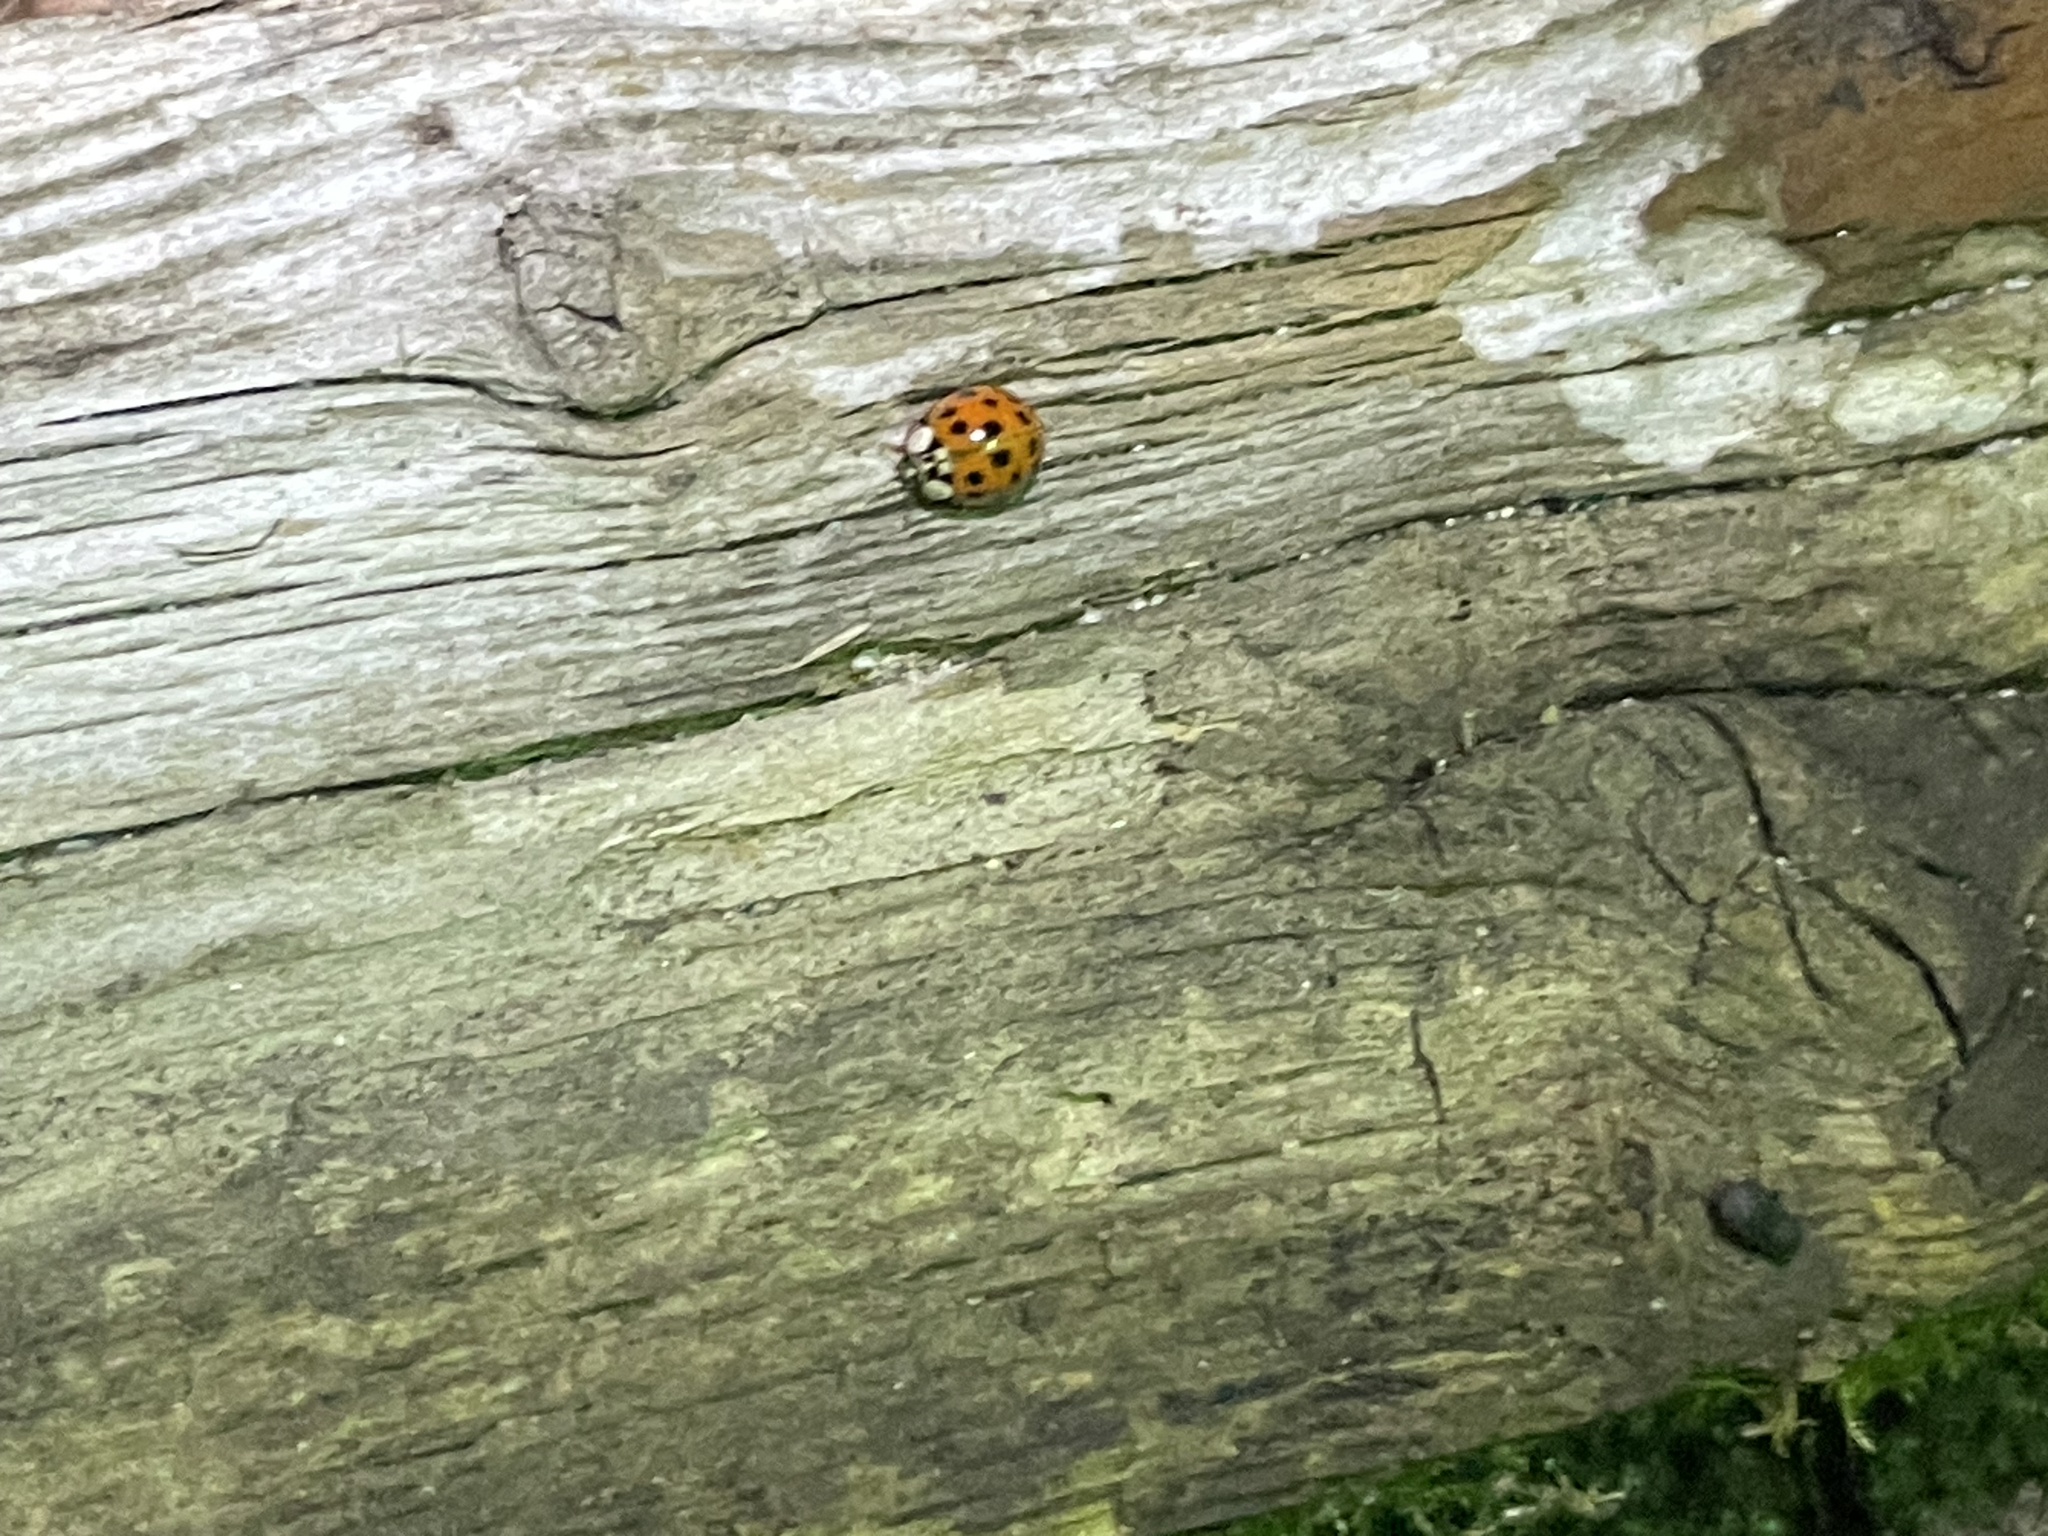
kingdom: Animalia
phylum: Arthropoda
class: Insecta
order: Coleoptera
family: Coccinellidae
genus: Harmonia
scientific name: Harmonia axyridis
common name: Harlequin ladybird
